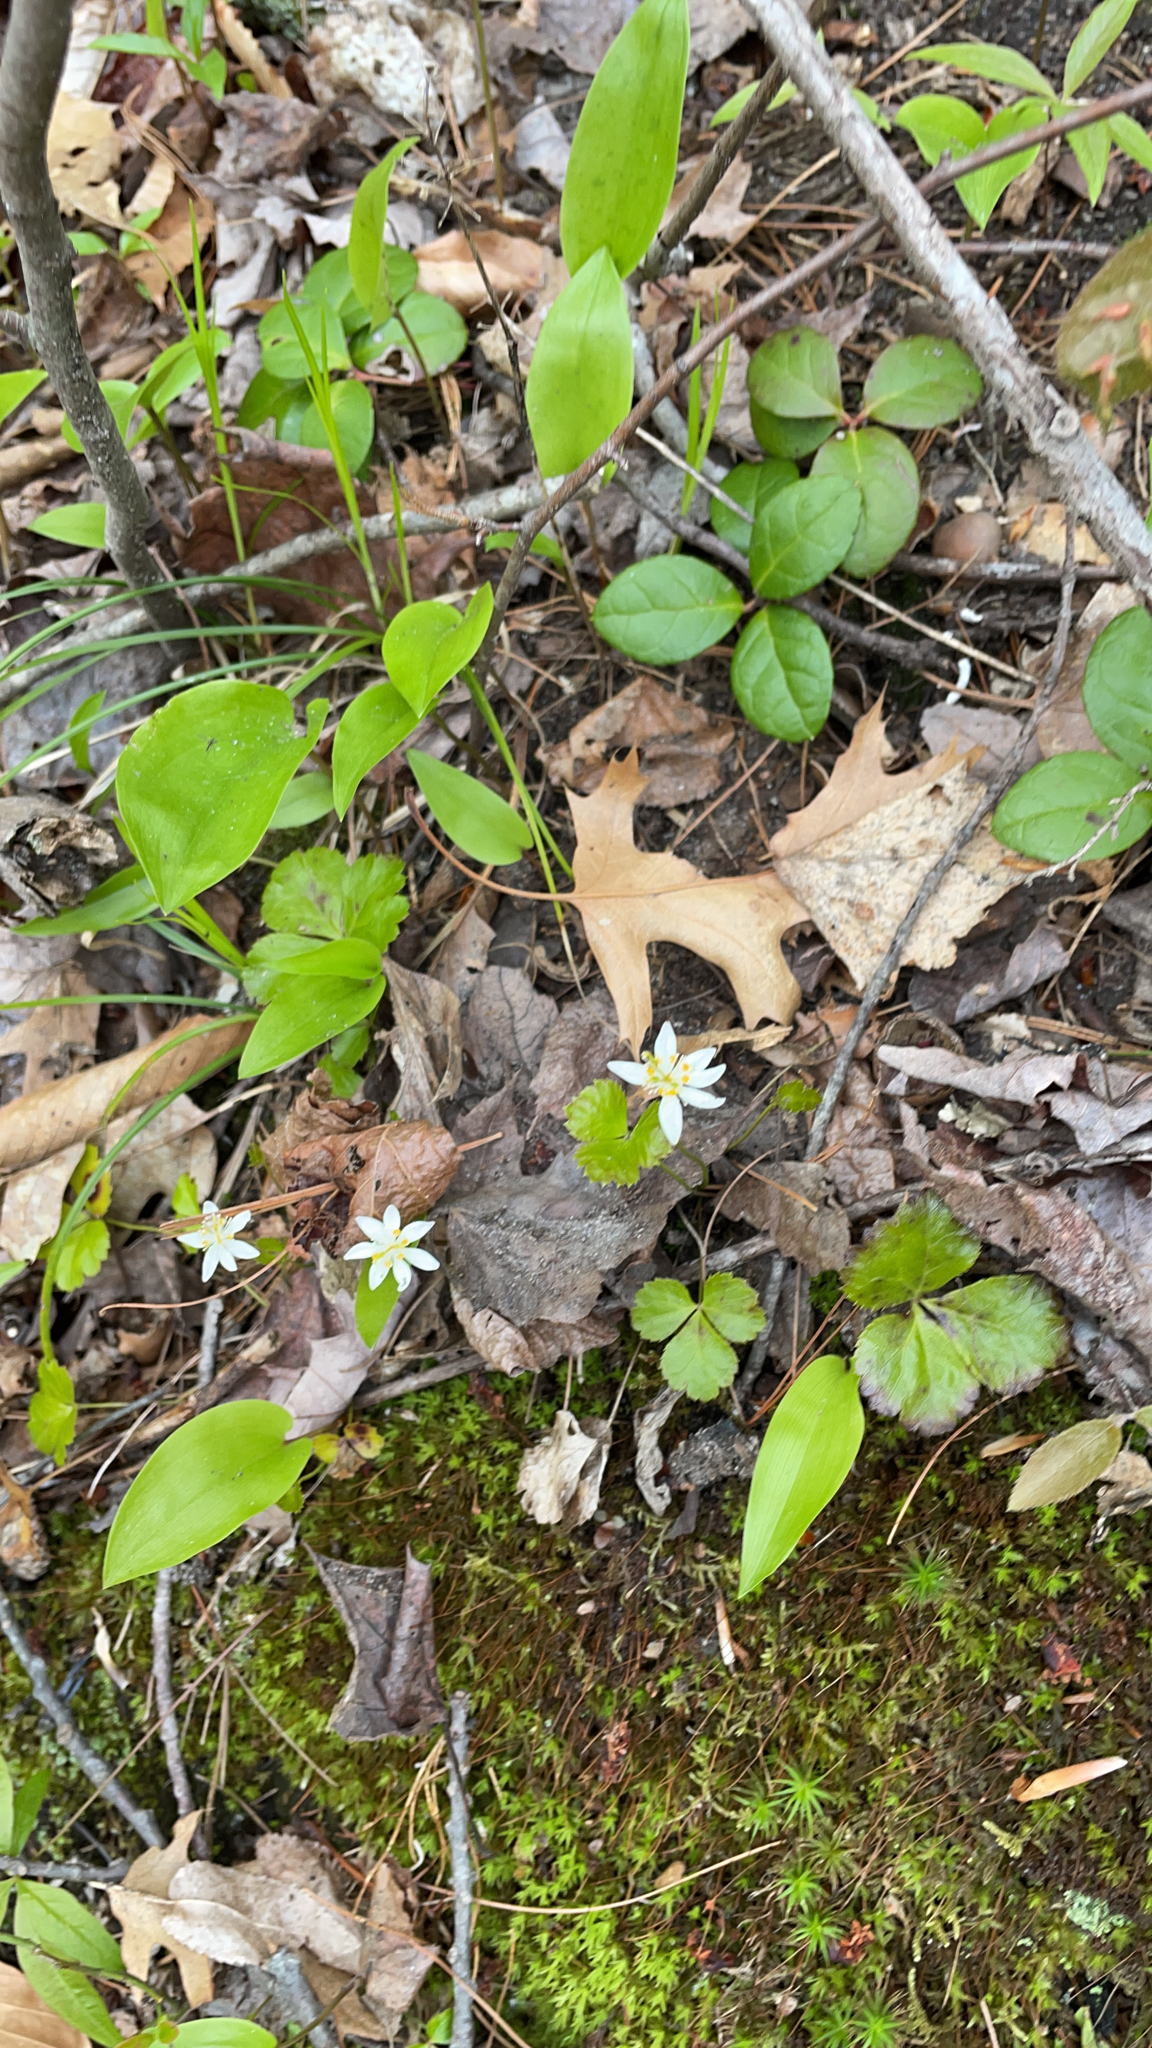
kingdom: Plantae
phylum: Tracheophyta
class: Magnoliopsida
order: Ranunculales
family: Ranunculaceae
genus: Coptis
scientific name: Coptis trifolia
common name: Canker-root
